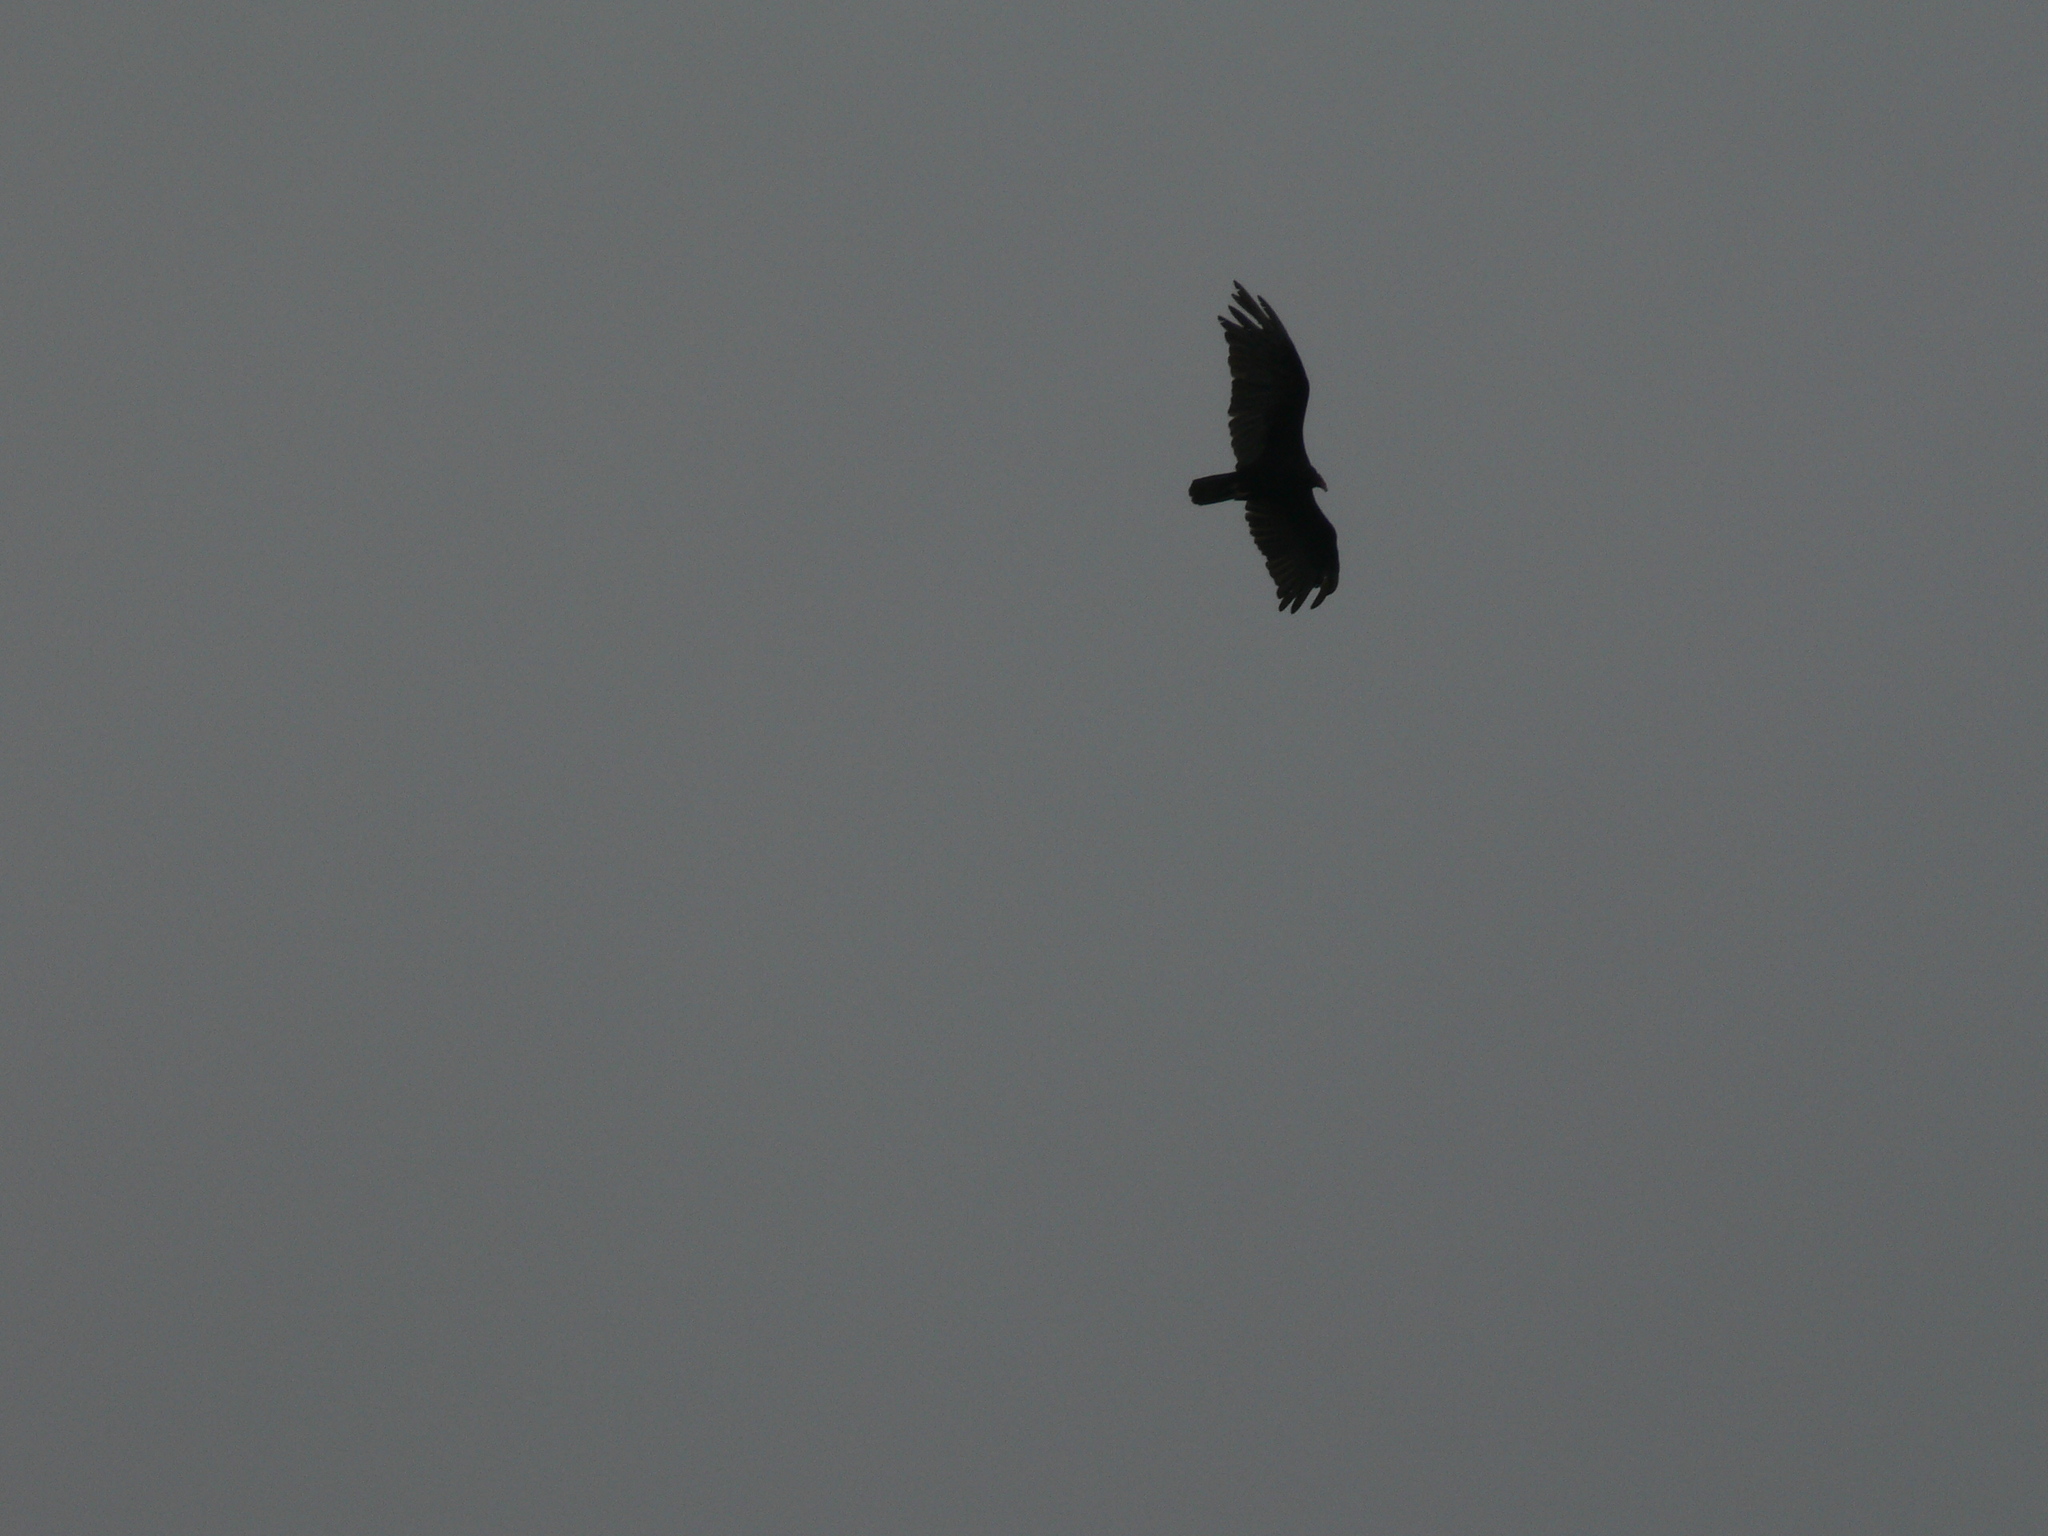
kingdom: Animalia
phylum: Chordata
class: Aves
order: Accipitriformes
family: Cathartidae
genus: Cathartes
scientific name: Cathartes aura
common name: Turkey vulture
